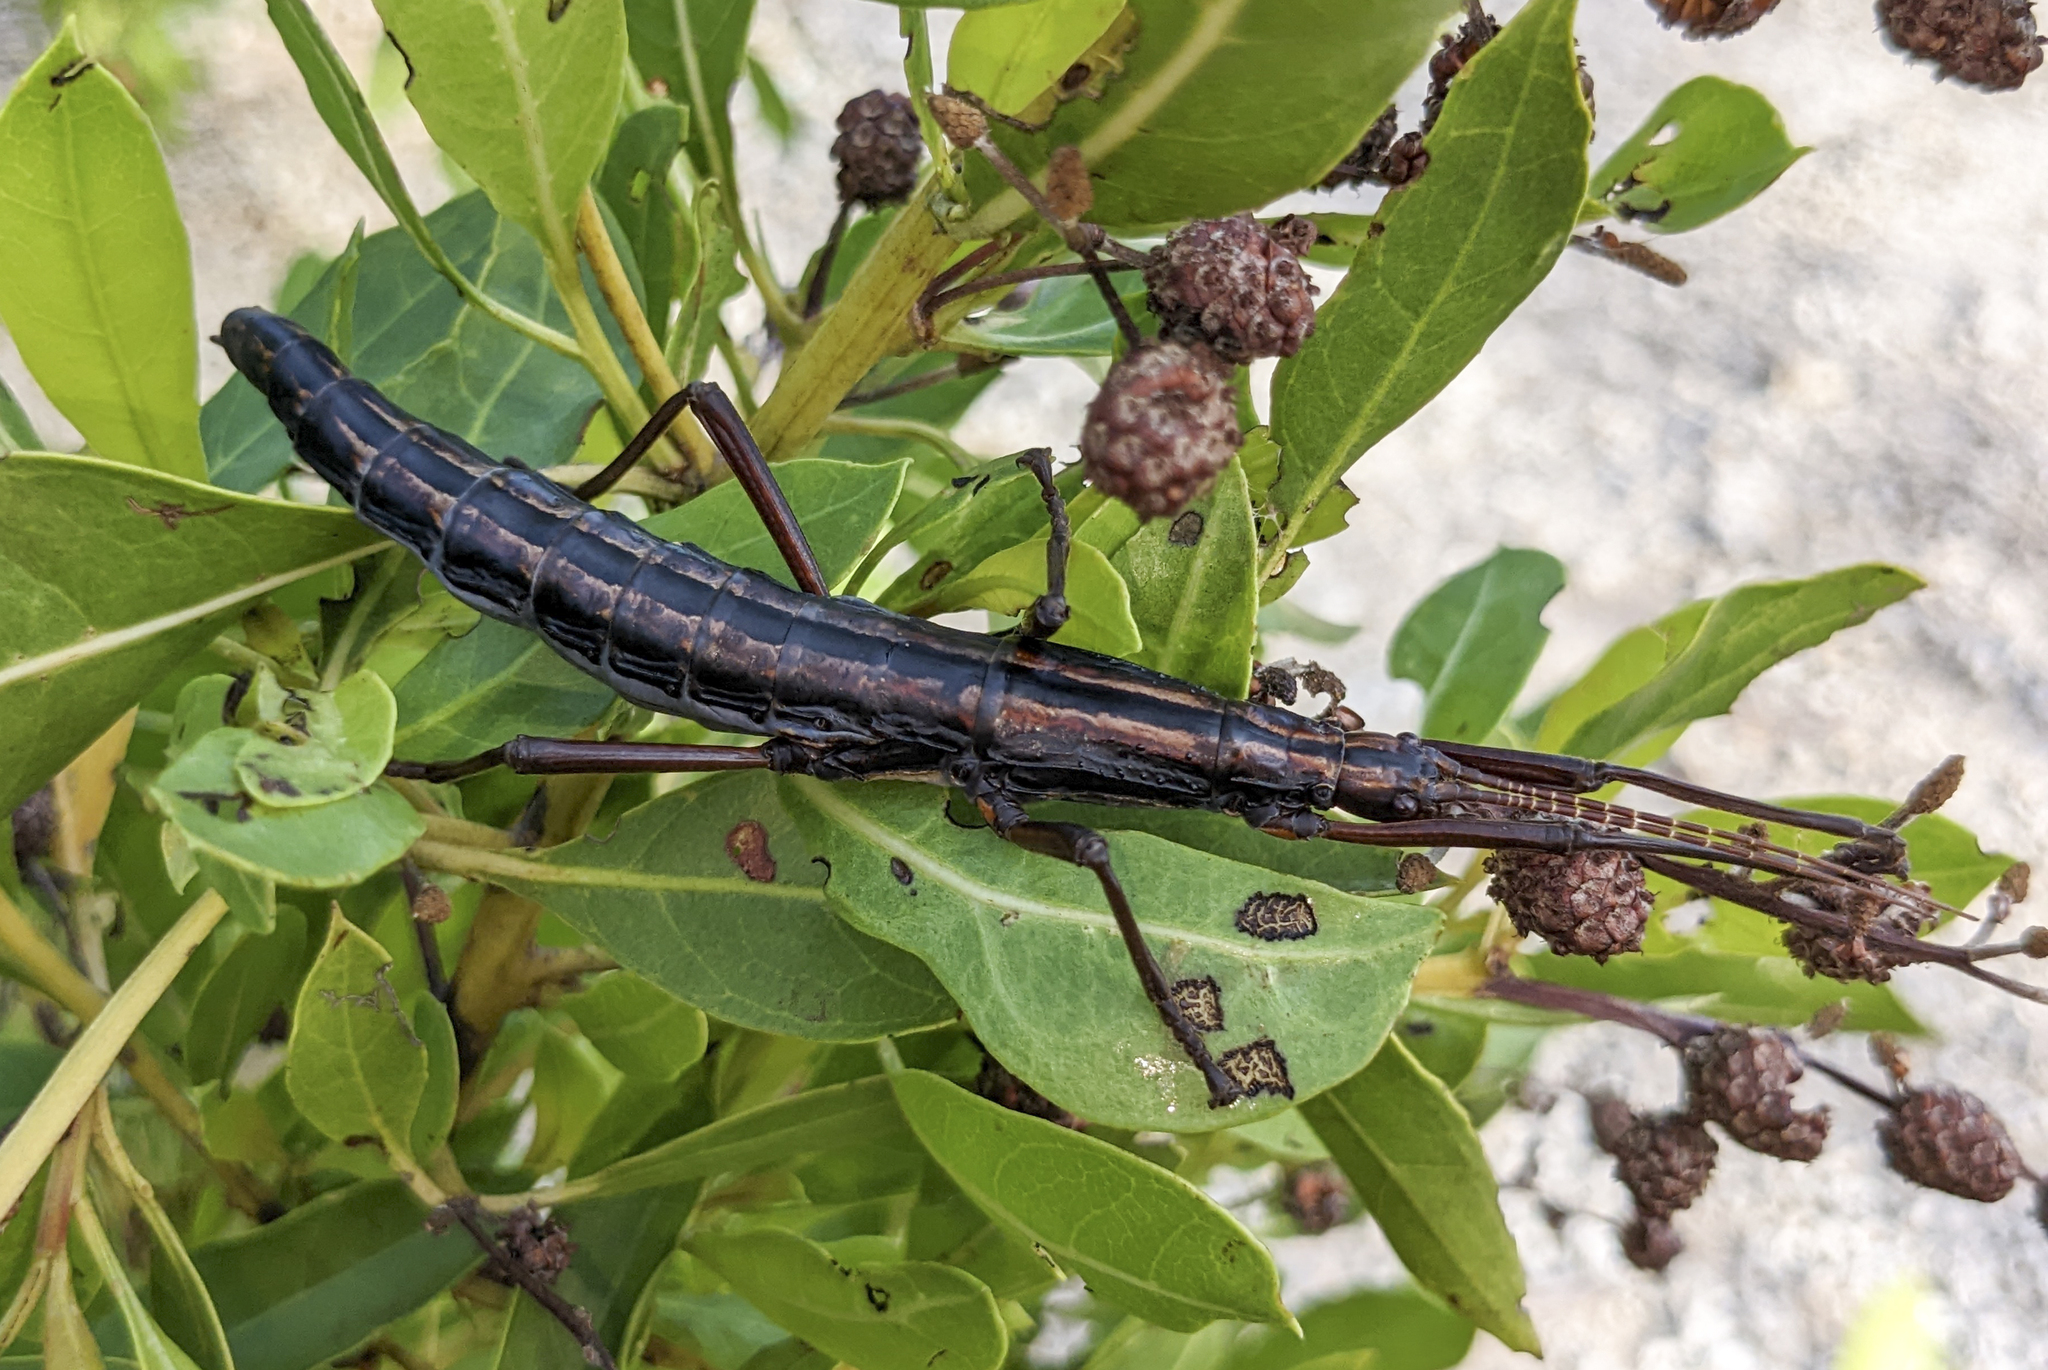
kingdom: Animalia
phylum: Arthropoda
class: Insecta
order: Phasmida
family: Pseudophasmatidae
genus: Anisomorpha
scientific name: Anisomorpha buprestoides
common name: Florida stick insect
